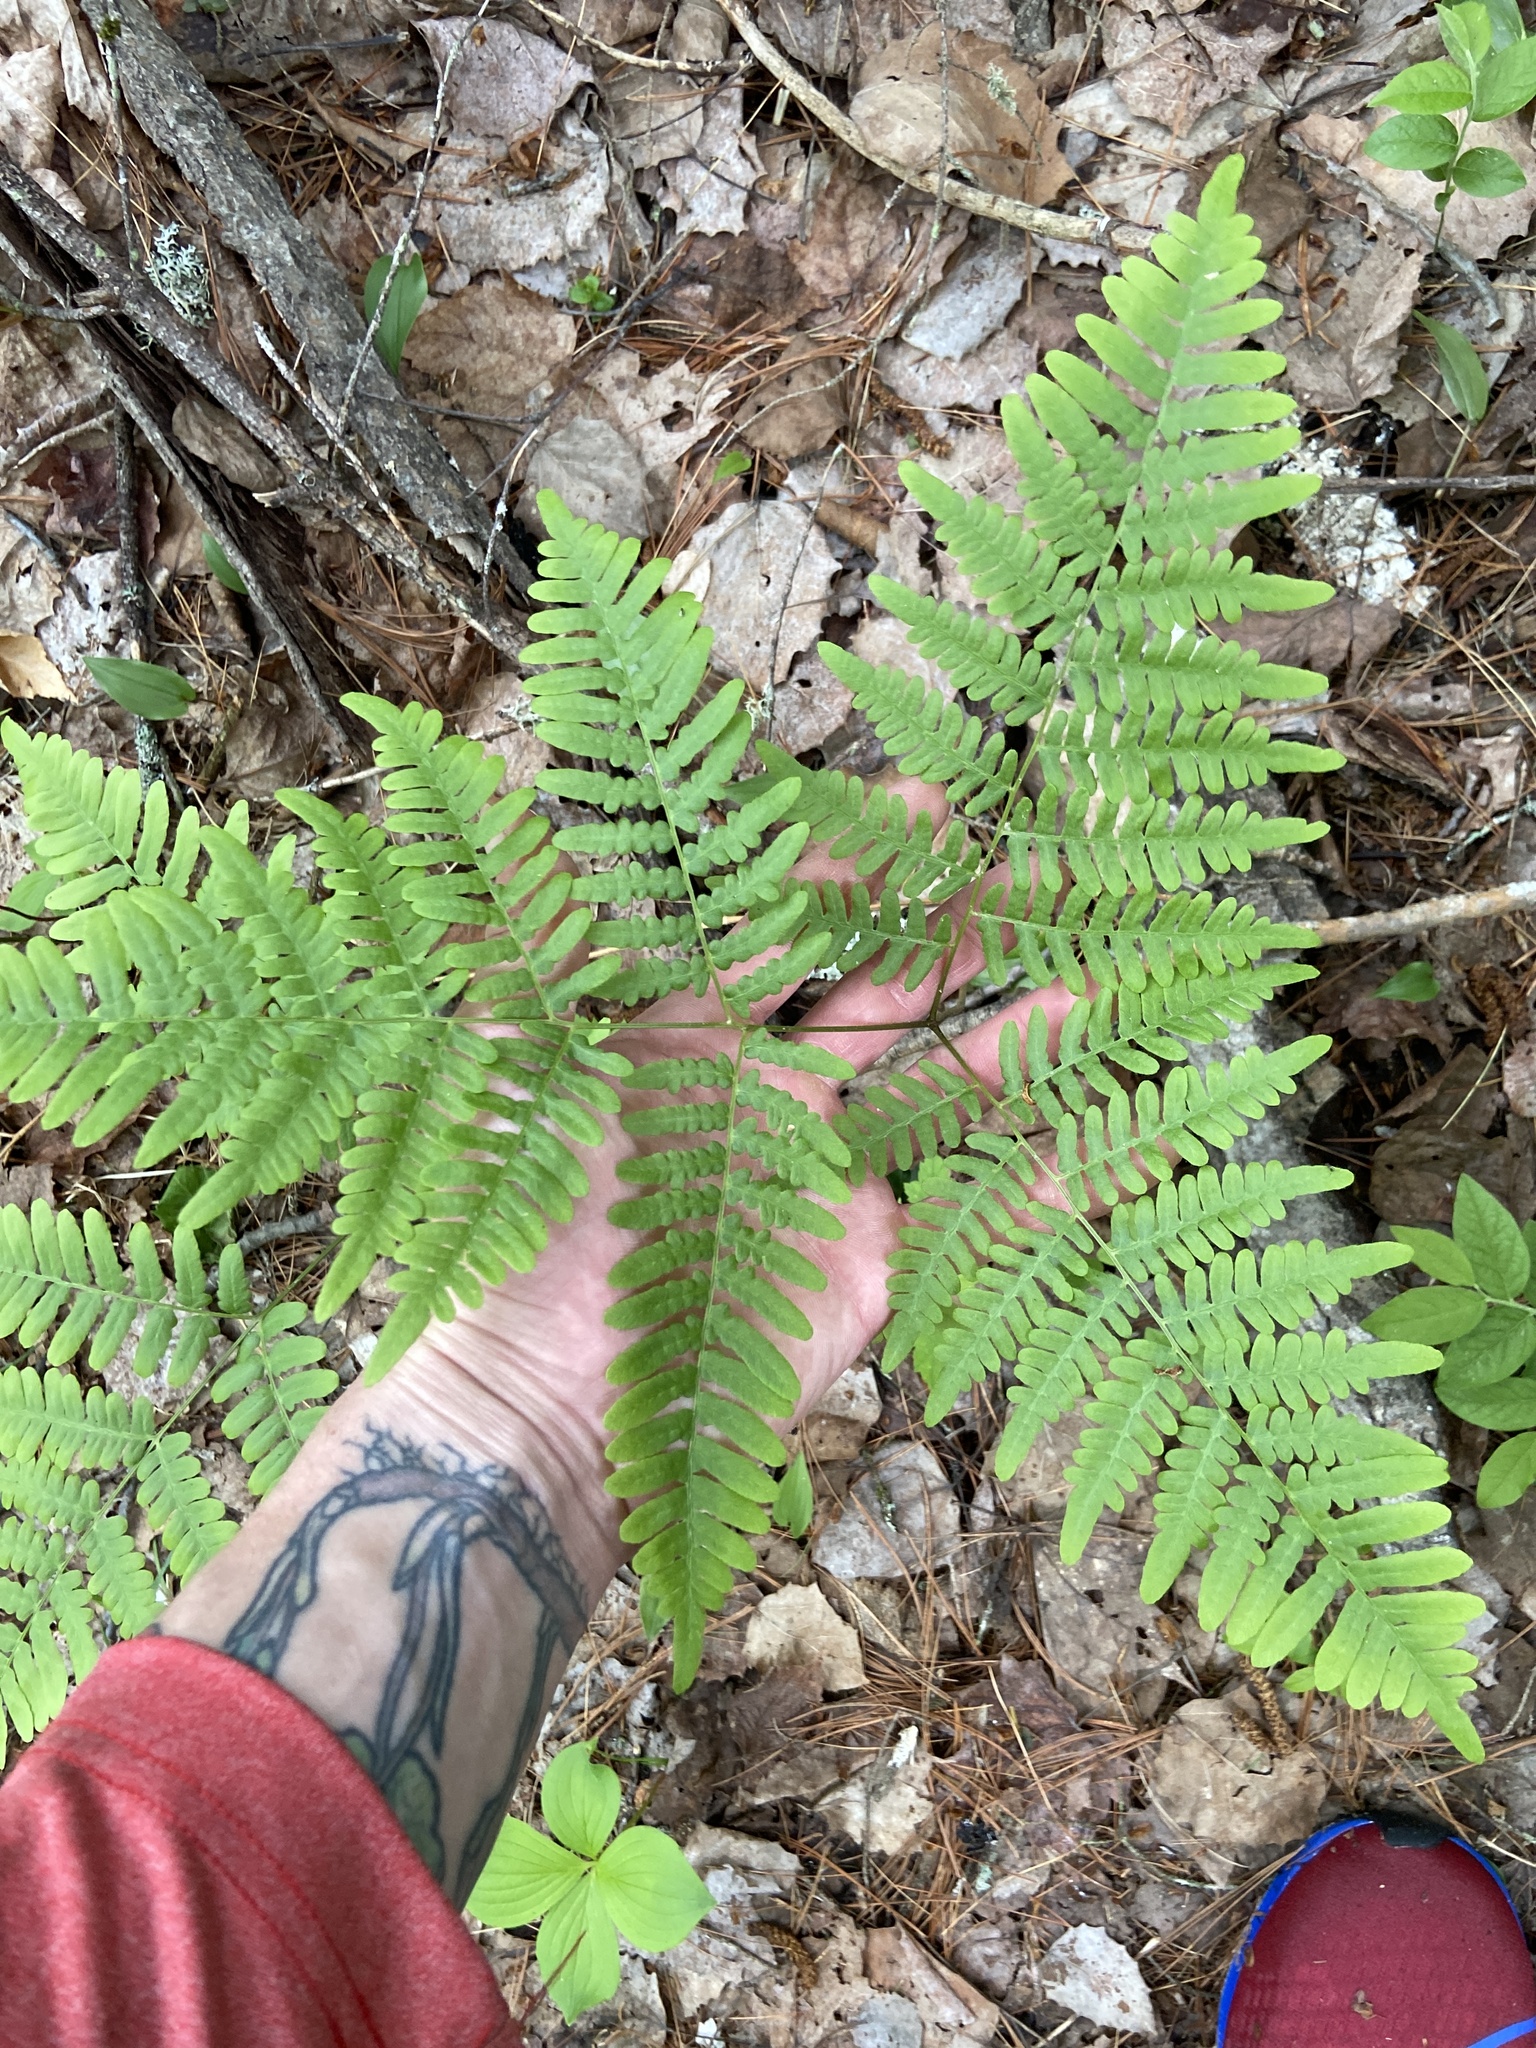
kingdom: Plantae
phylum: Tracheophyta
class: Polypodiopsida
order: Polypodiales
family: Dennstaedtiaceae
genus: Pteridium
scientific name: Pteridium aquilinum
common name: Bracken
